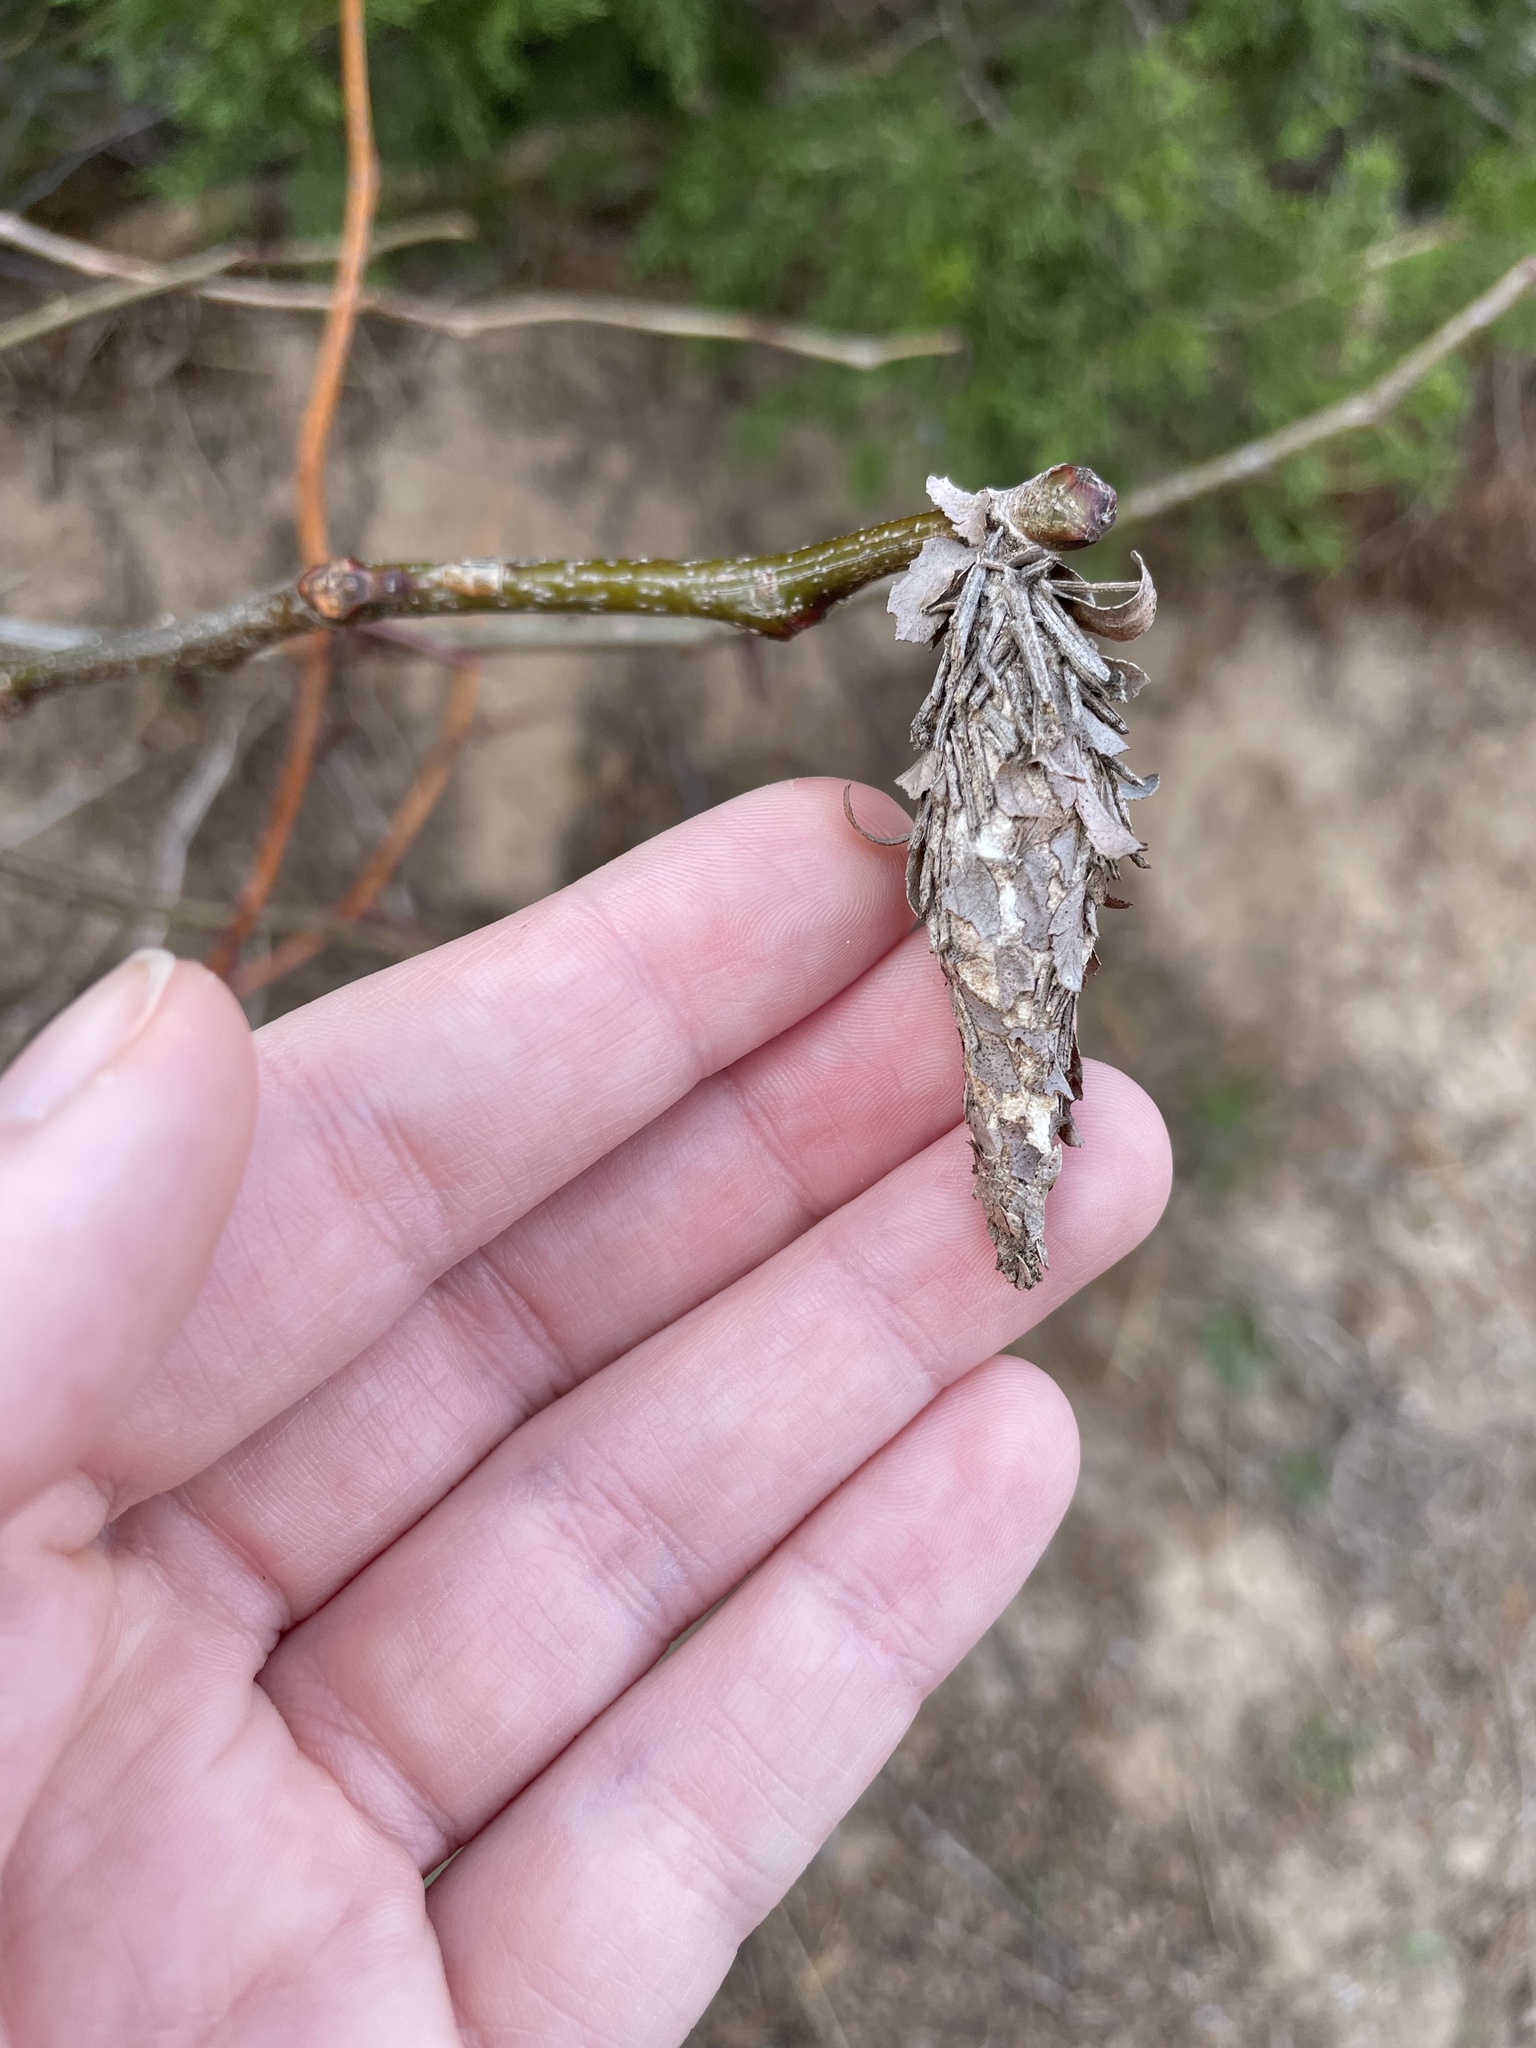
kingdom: Animalia
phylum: Arthropoda
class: Insecta
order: Lepidoptera
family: Psychidae
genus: Thyridopteryx
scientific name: Thyridopteryx ephemeraeformis
